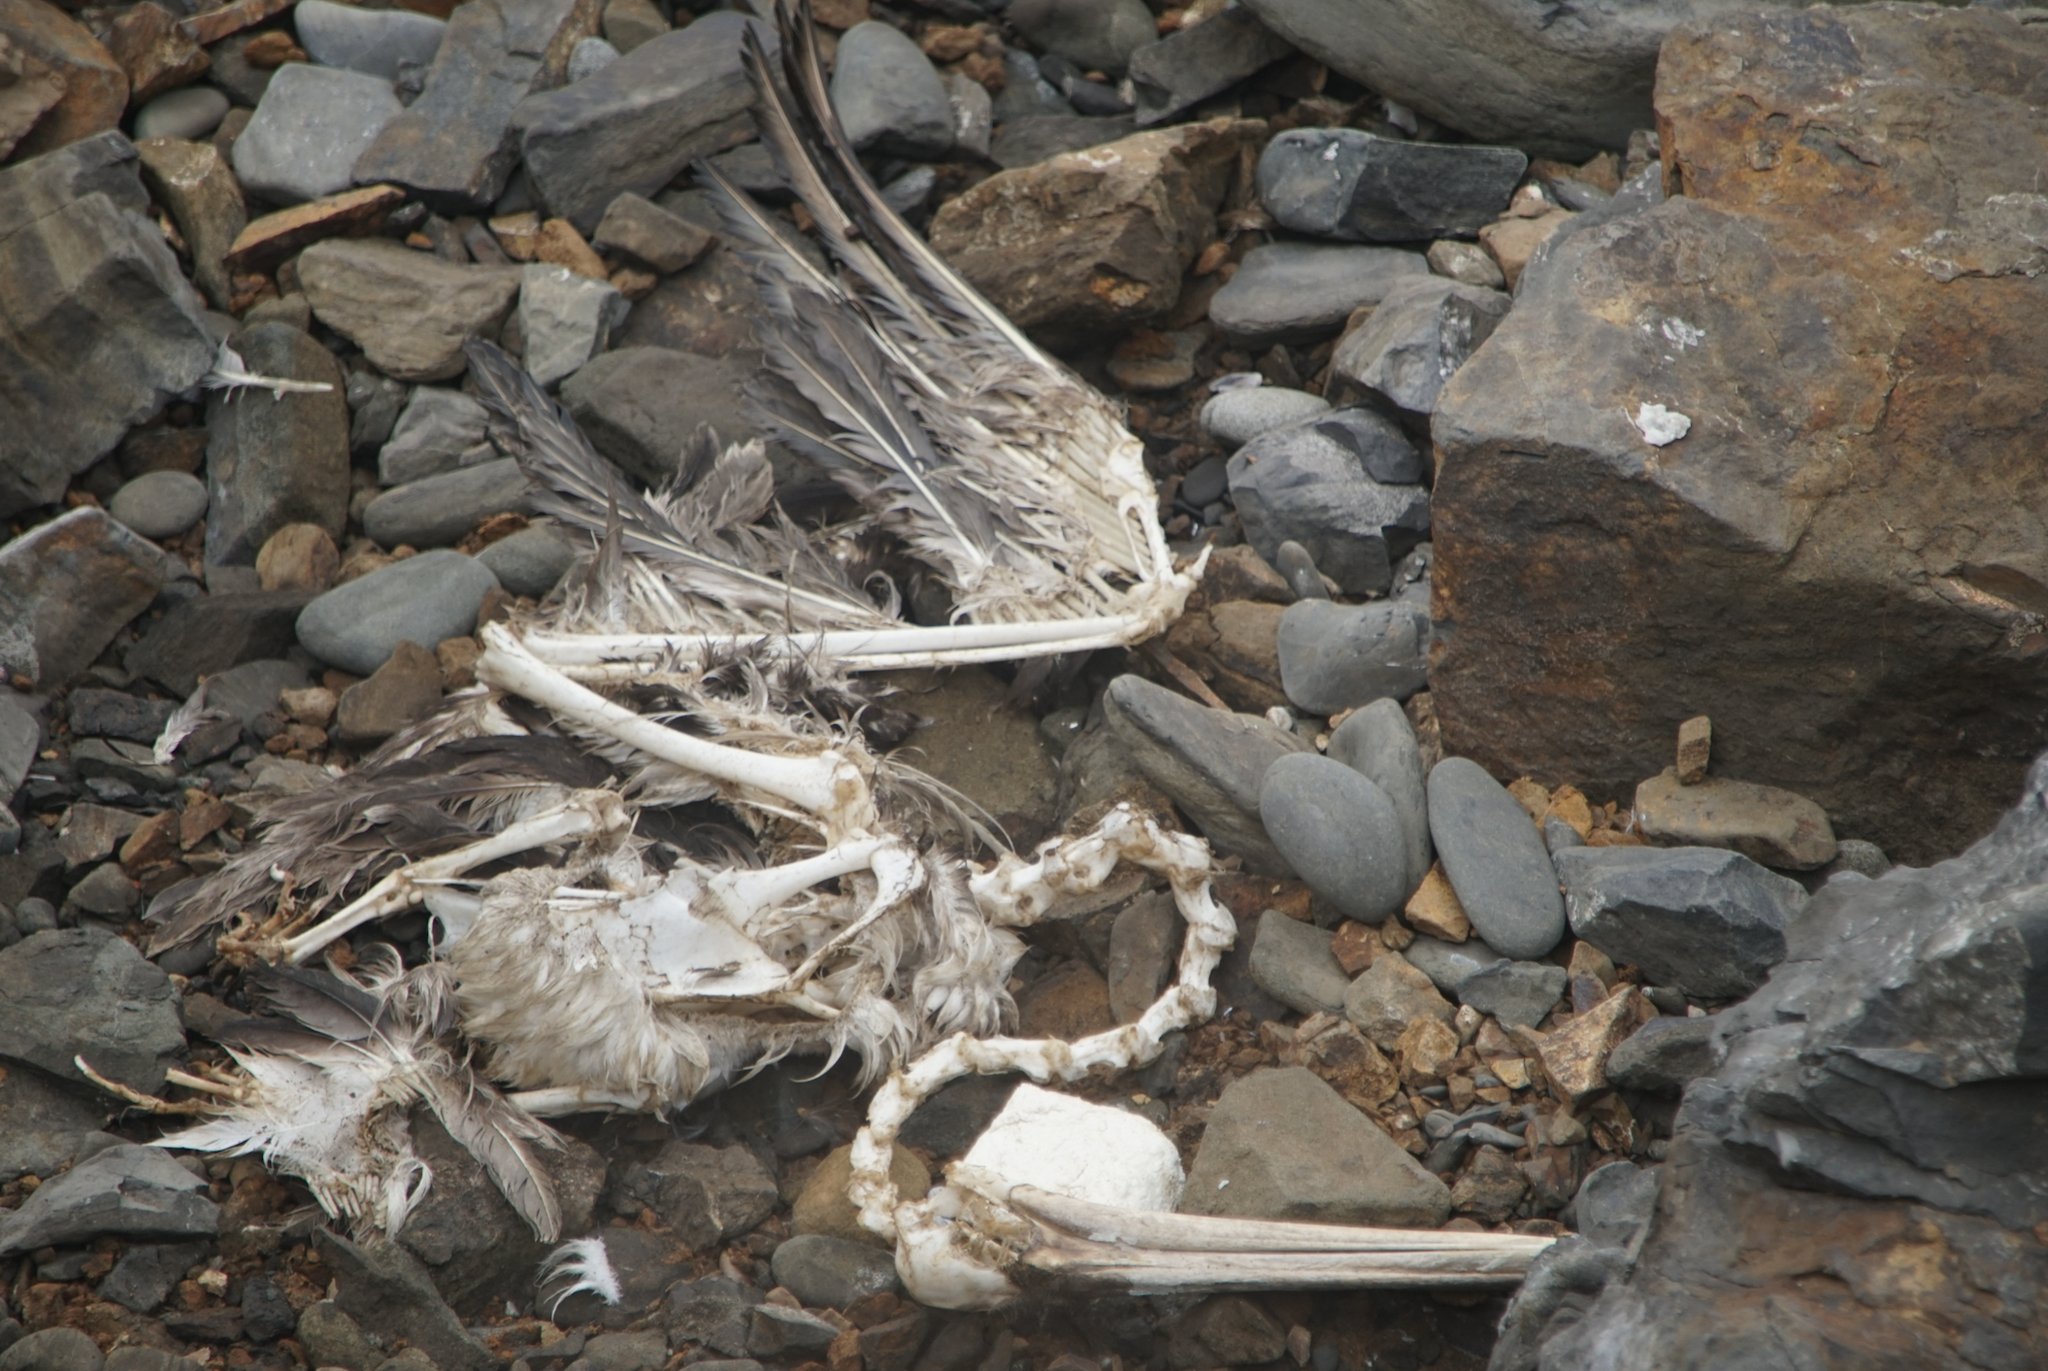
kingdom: Animalia
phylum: Chordata
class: Aves
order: Pelecaniformes
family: Pelecanidae
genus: Pelecanus
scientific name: Pelecanus occidentalis
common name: Brown pelican
